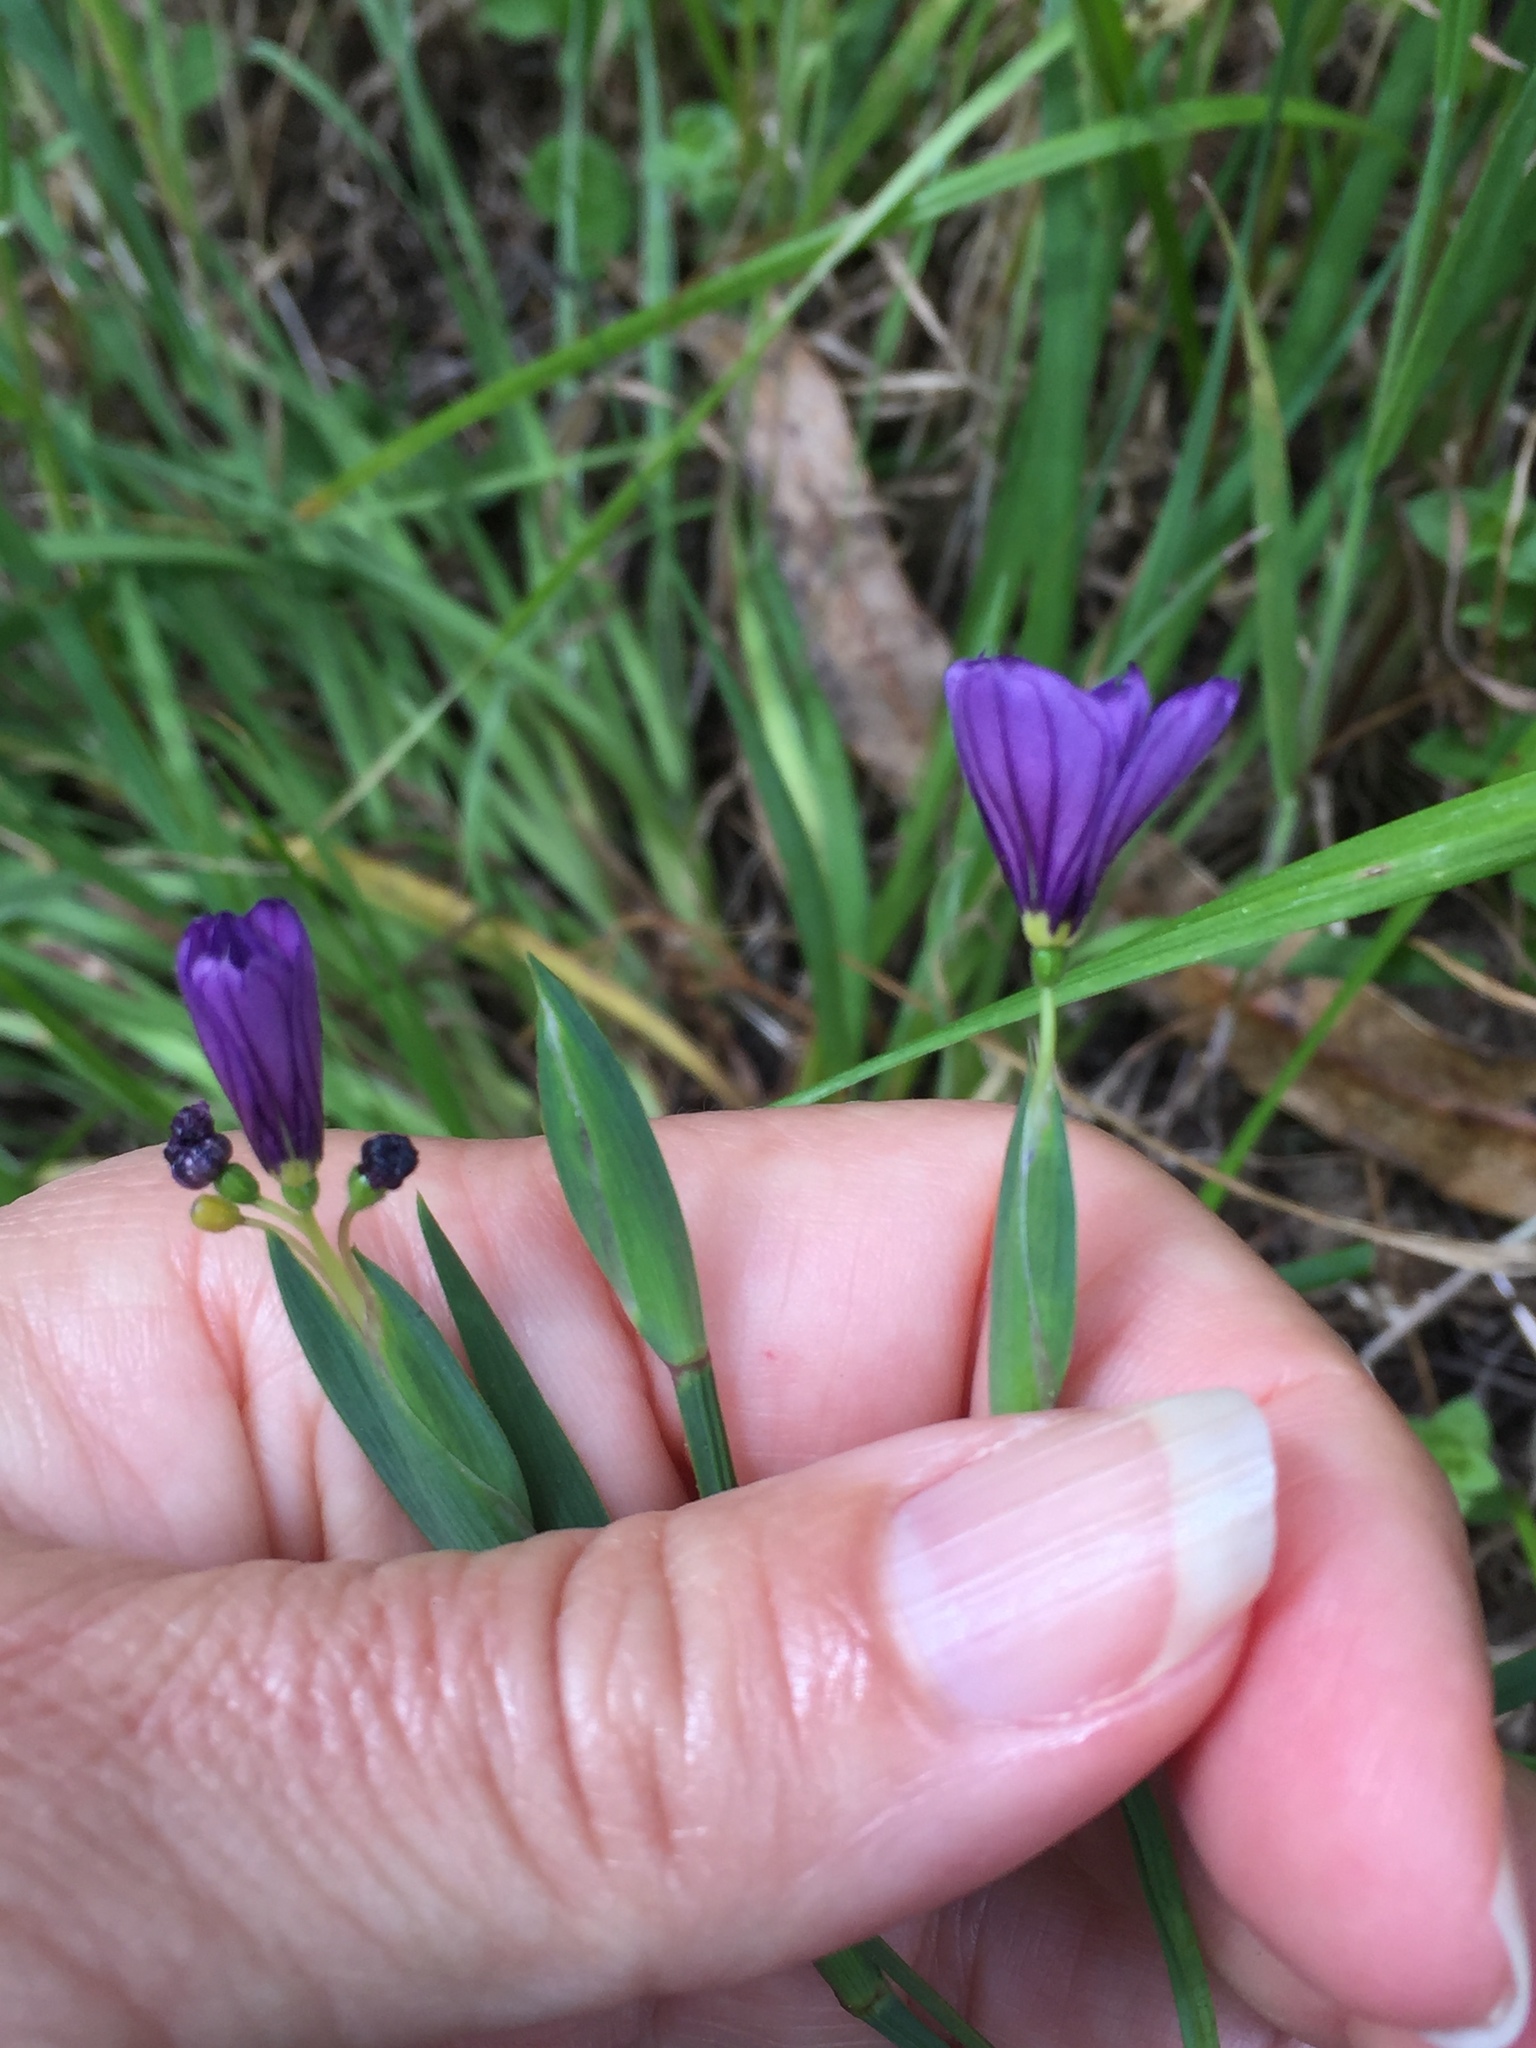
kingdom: Plantae
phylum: Tracheophyta
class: Liliopsida
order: Asparagales
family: Iridaceae
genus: Sisyrinchium
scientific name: Sisyrinchium bellum
